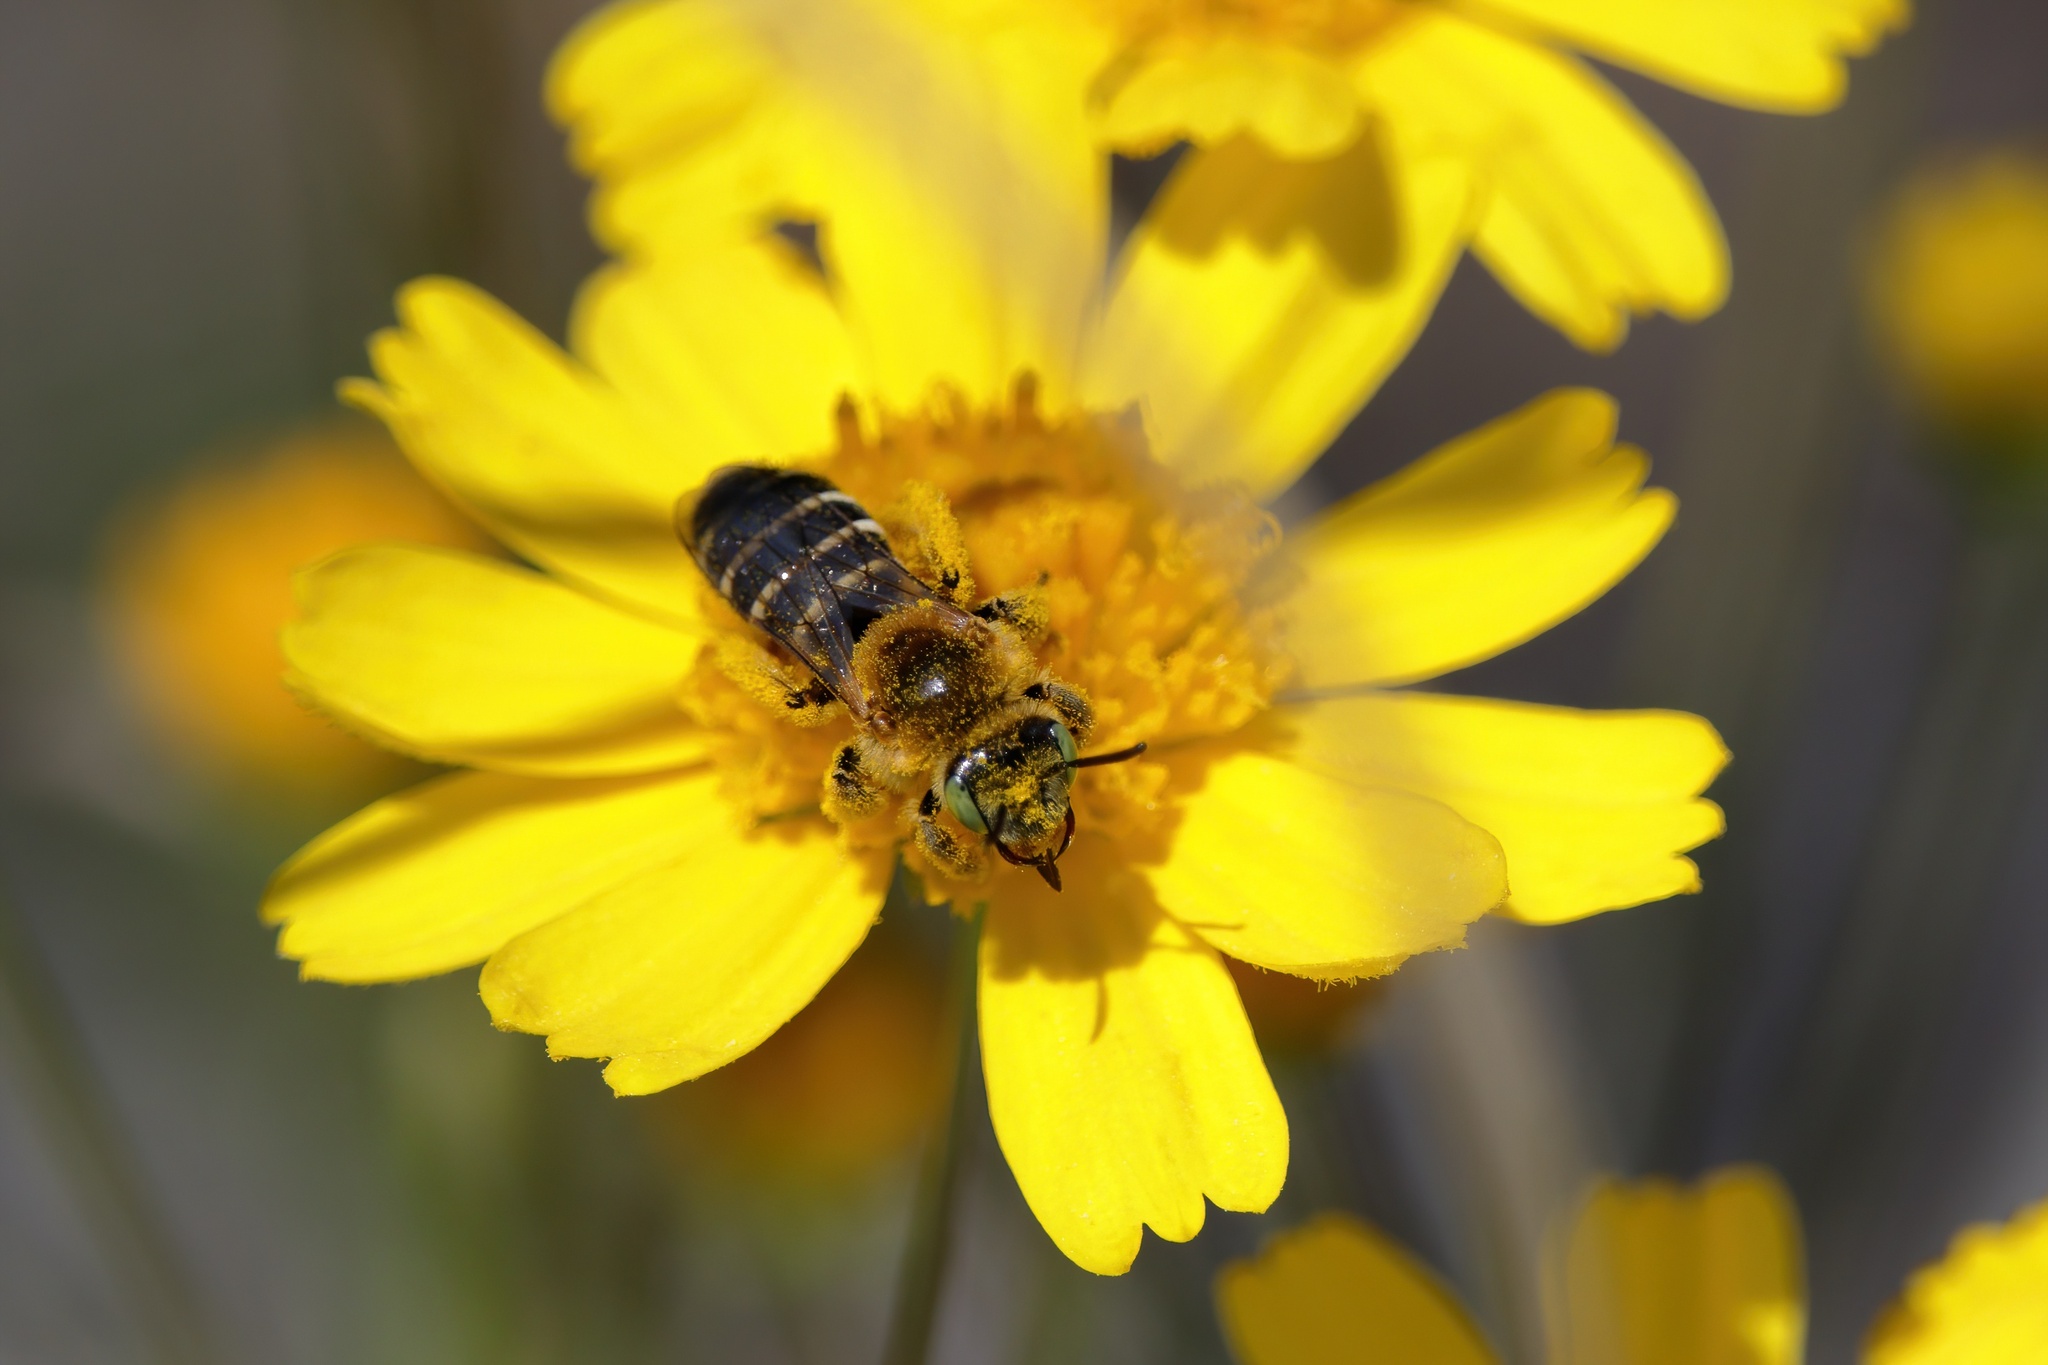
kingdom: Animalia
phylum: Arthropoda
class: Insecta
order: Hymenoptera
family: Melittidae
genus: Hesperapis
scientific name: Hesperapis oraria
